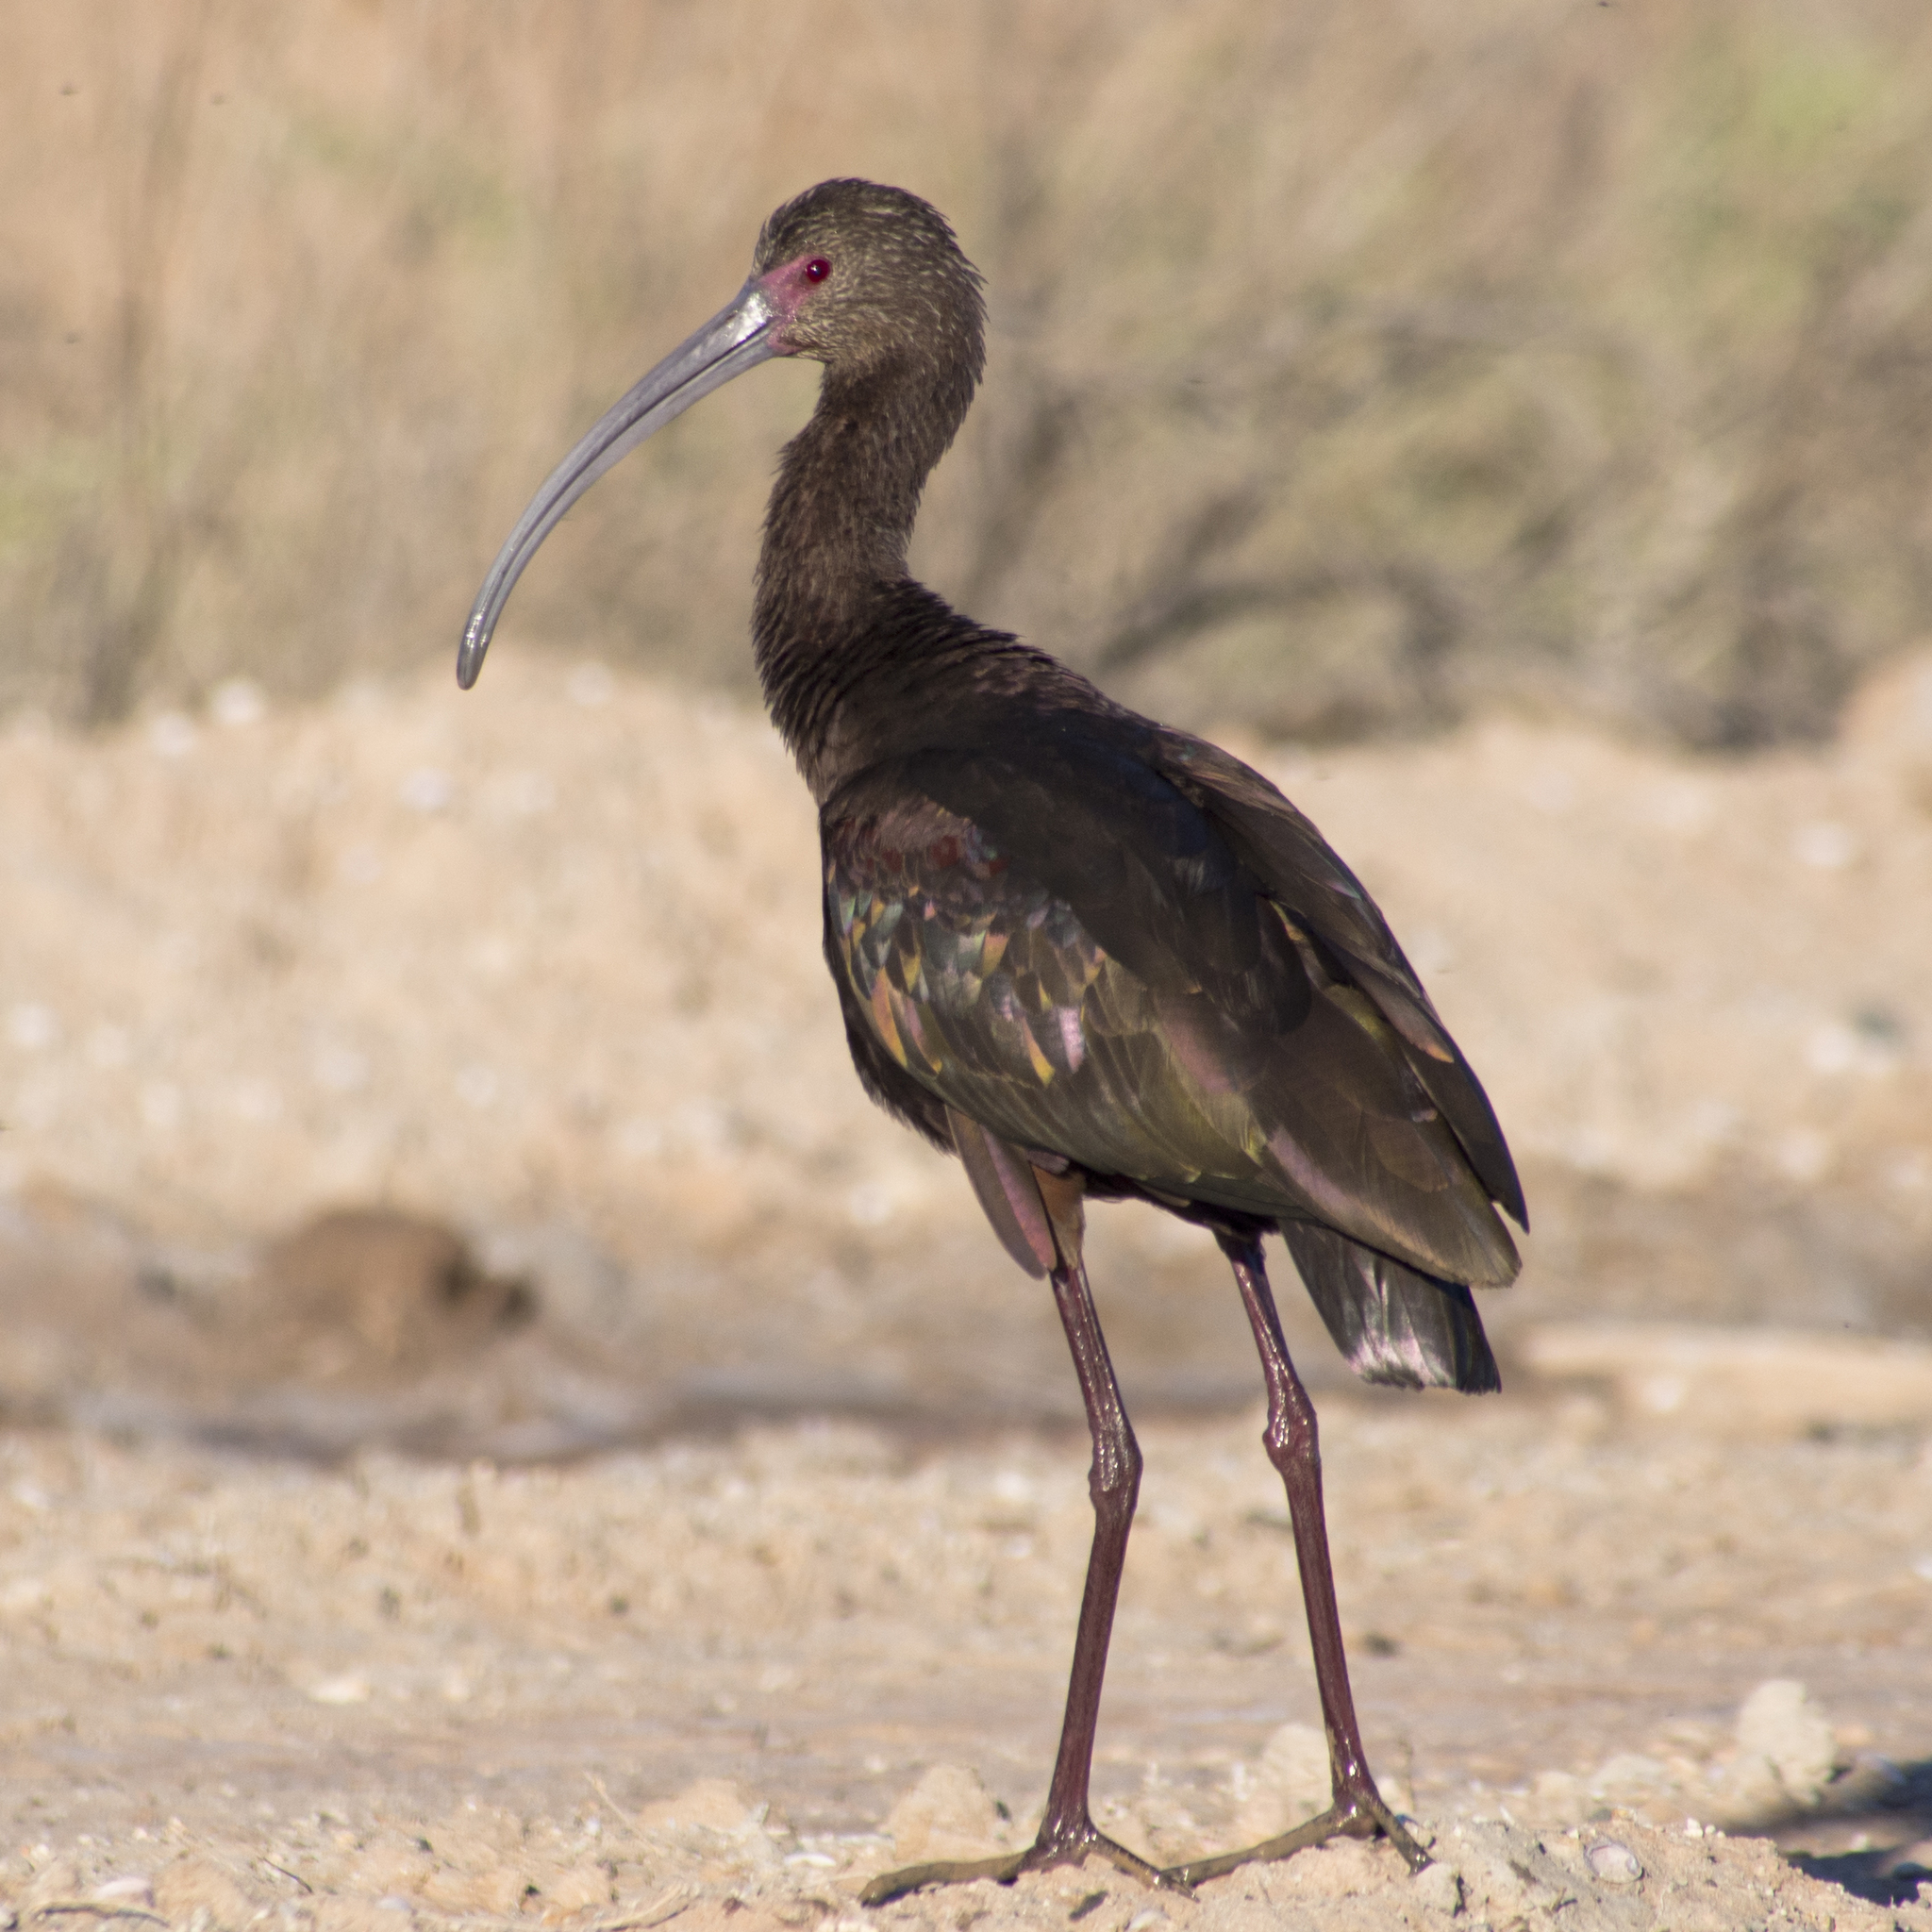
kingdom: Animalia
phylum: Chordata
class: Aves
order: Pelecaniformes
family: Threskiornithidae
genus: Plegadis
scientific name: Plegadis chihi
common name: White-faced ibis
